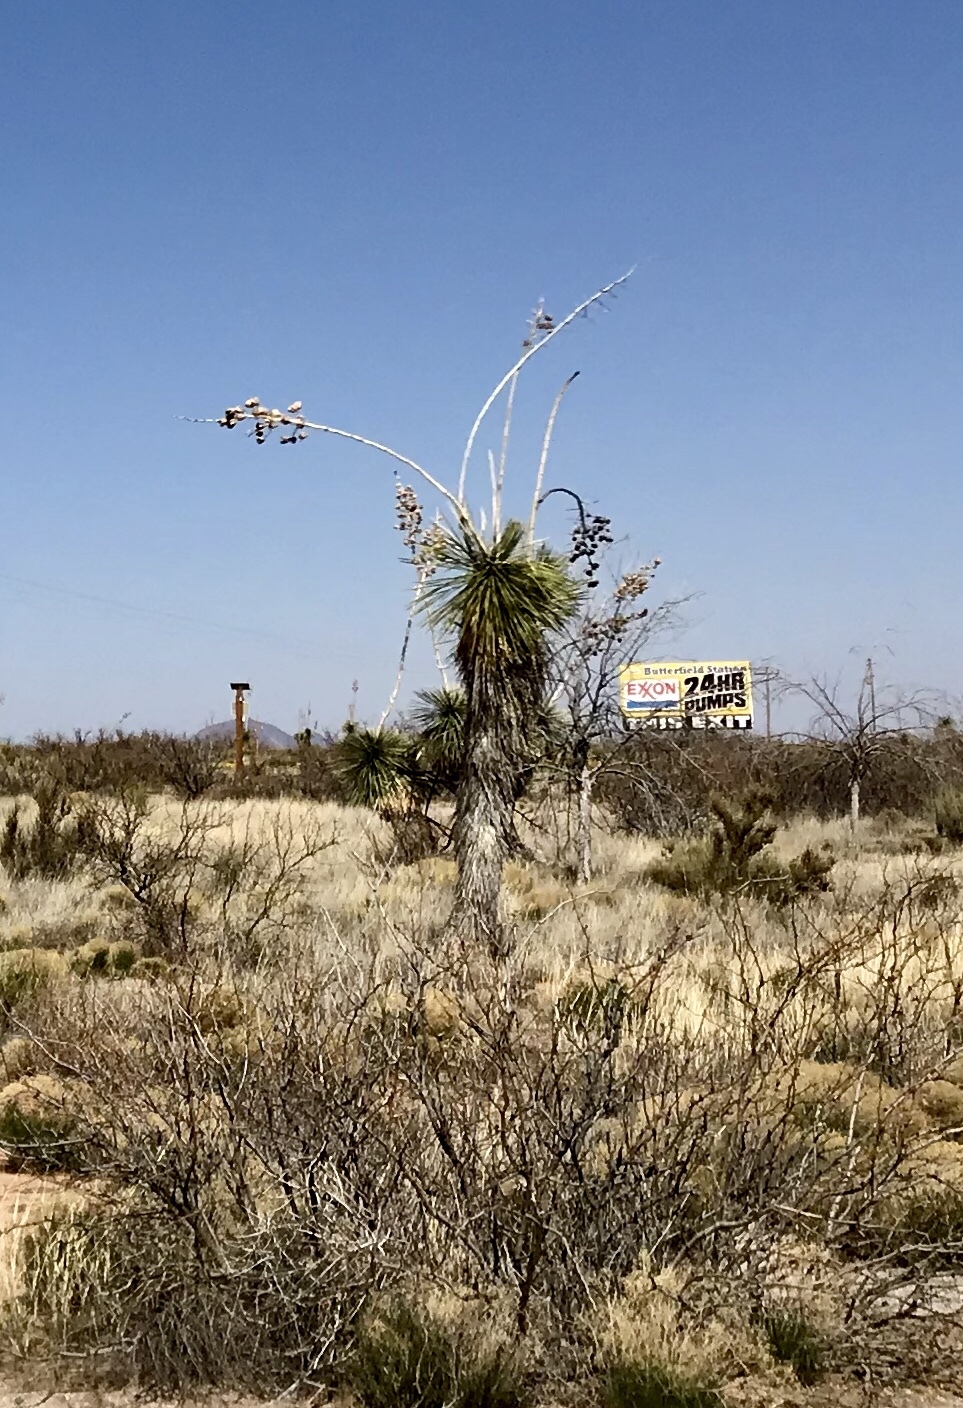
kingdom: Plantae
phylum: Tracheophyta
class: Liliopsida
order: Asparagales
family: Asparagaceae
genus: Yucca
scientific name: Yucca elata
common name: Palmella
